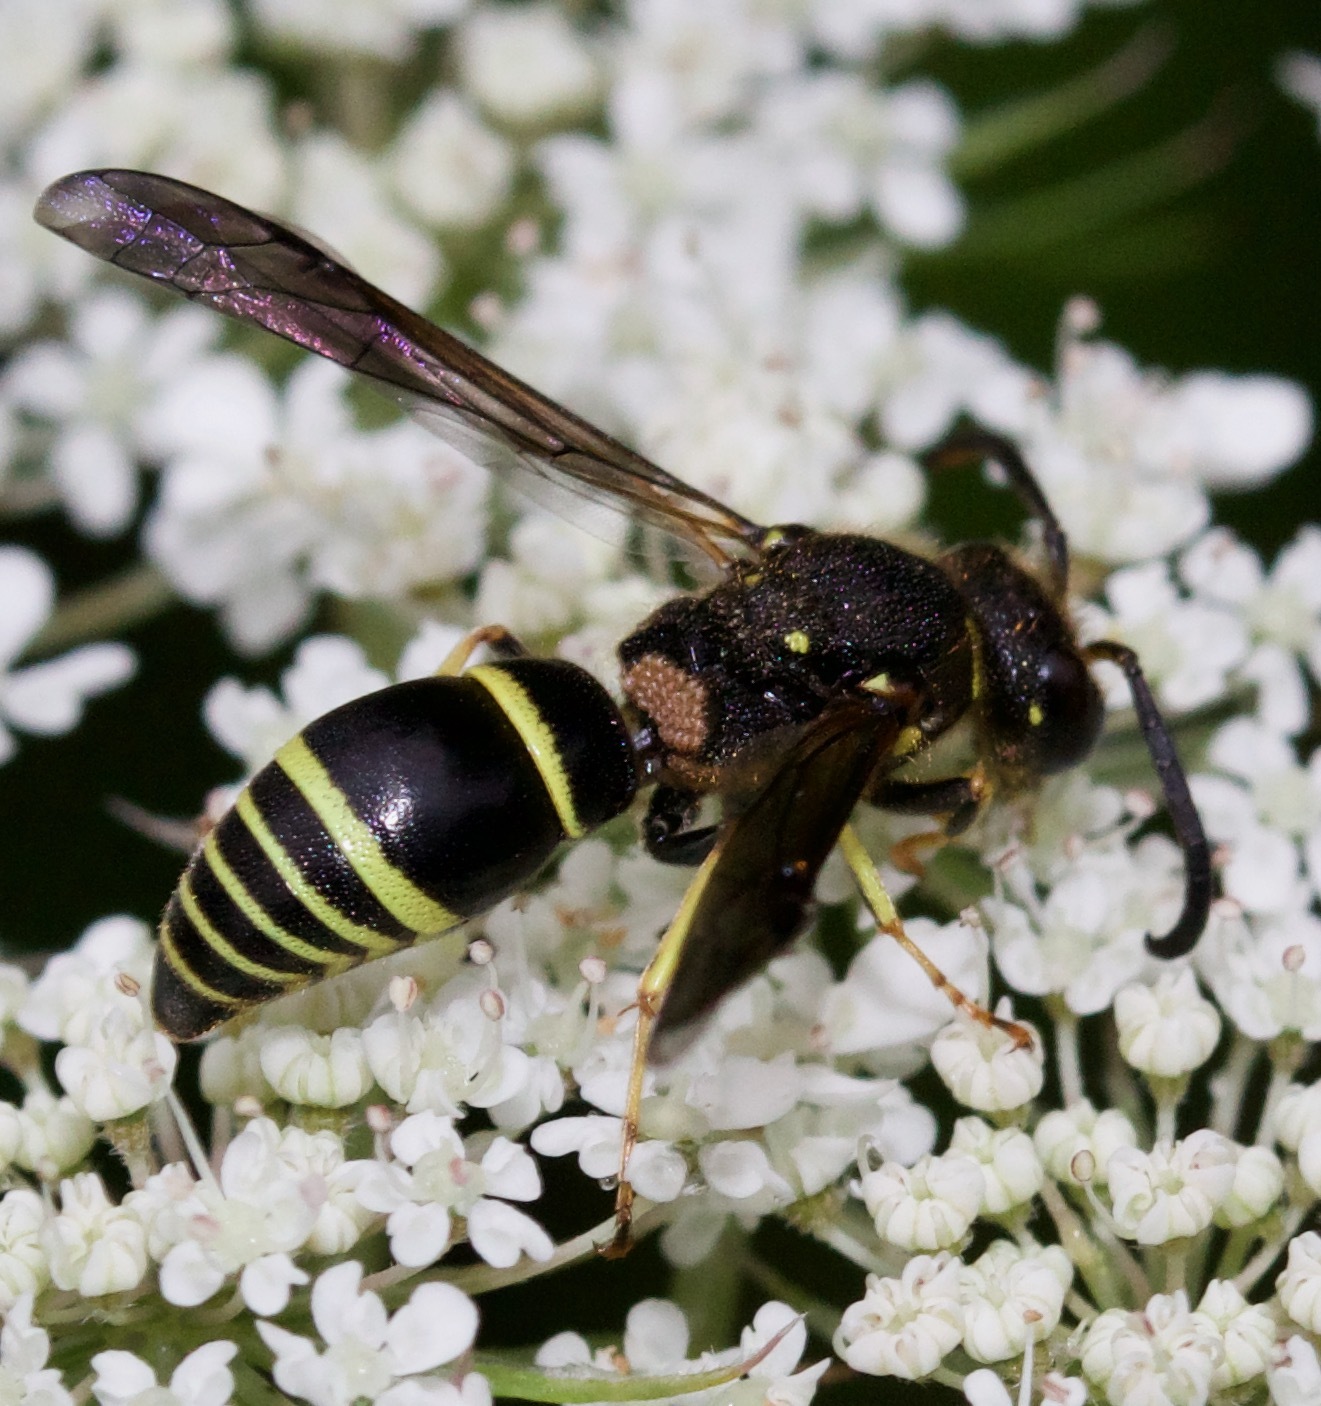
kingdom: Animalia
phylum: Arthropoda
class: Insecta
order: Hymenoptera
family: Vespidae
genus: Ancistrocerus
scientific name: Ancistrocerus
